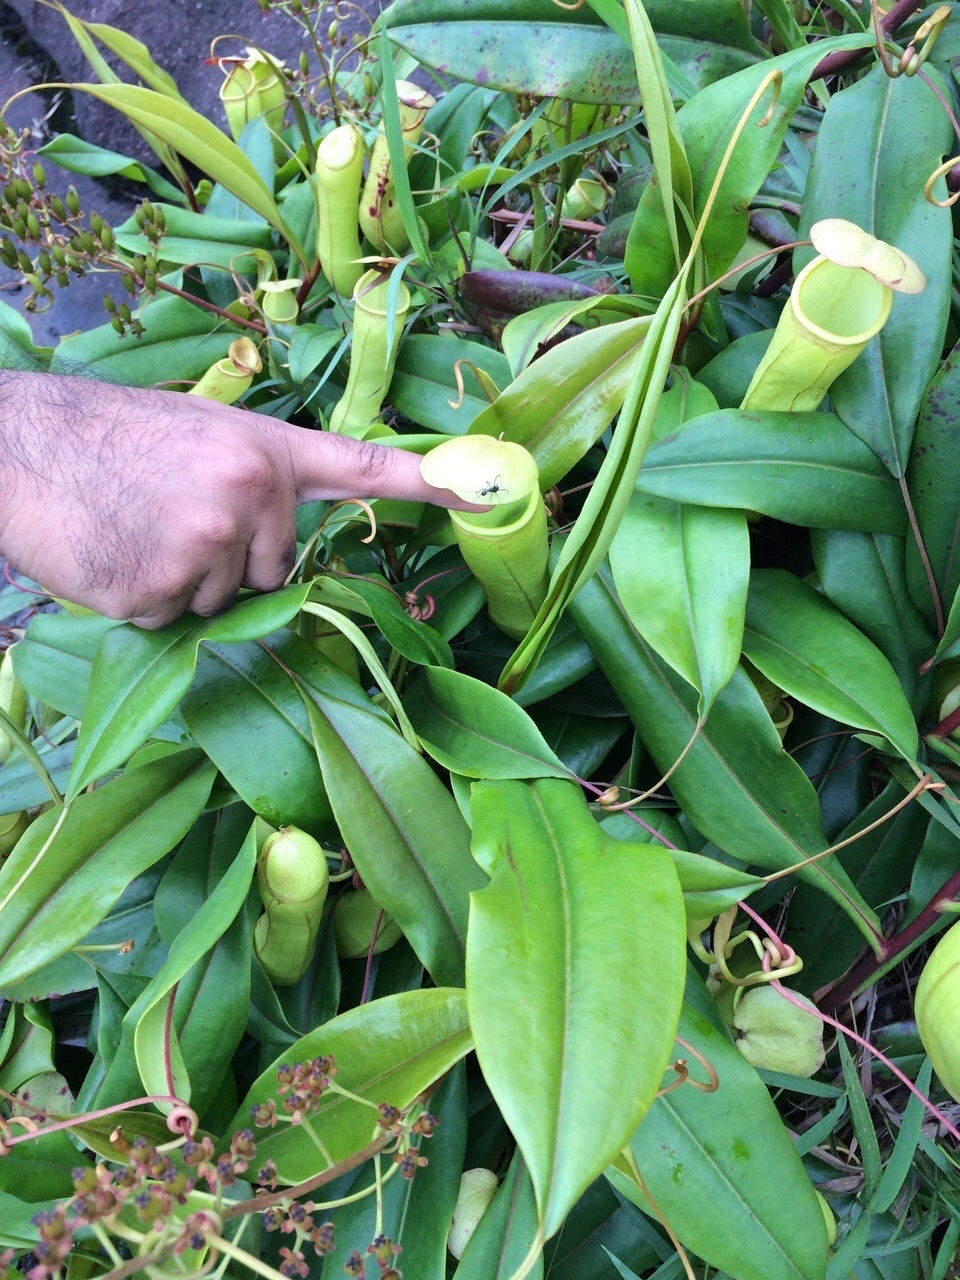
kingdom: Plantae
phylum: Tracheophyta
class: Magnoliopsida
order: Caryophyllales
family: Nepenthaceae
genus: Nepenthes
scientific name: Nepenthes distillatoria
